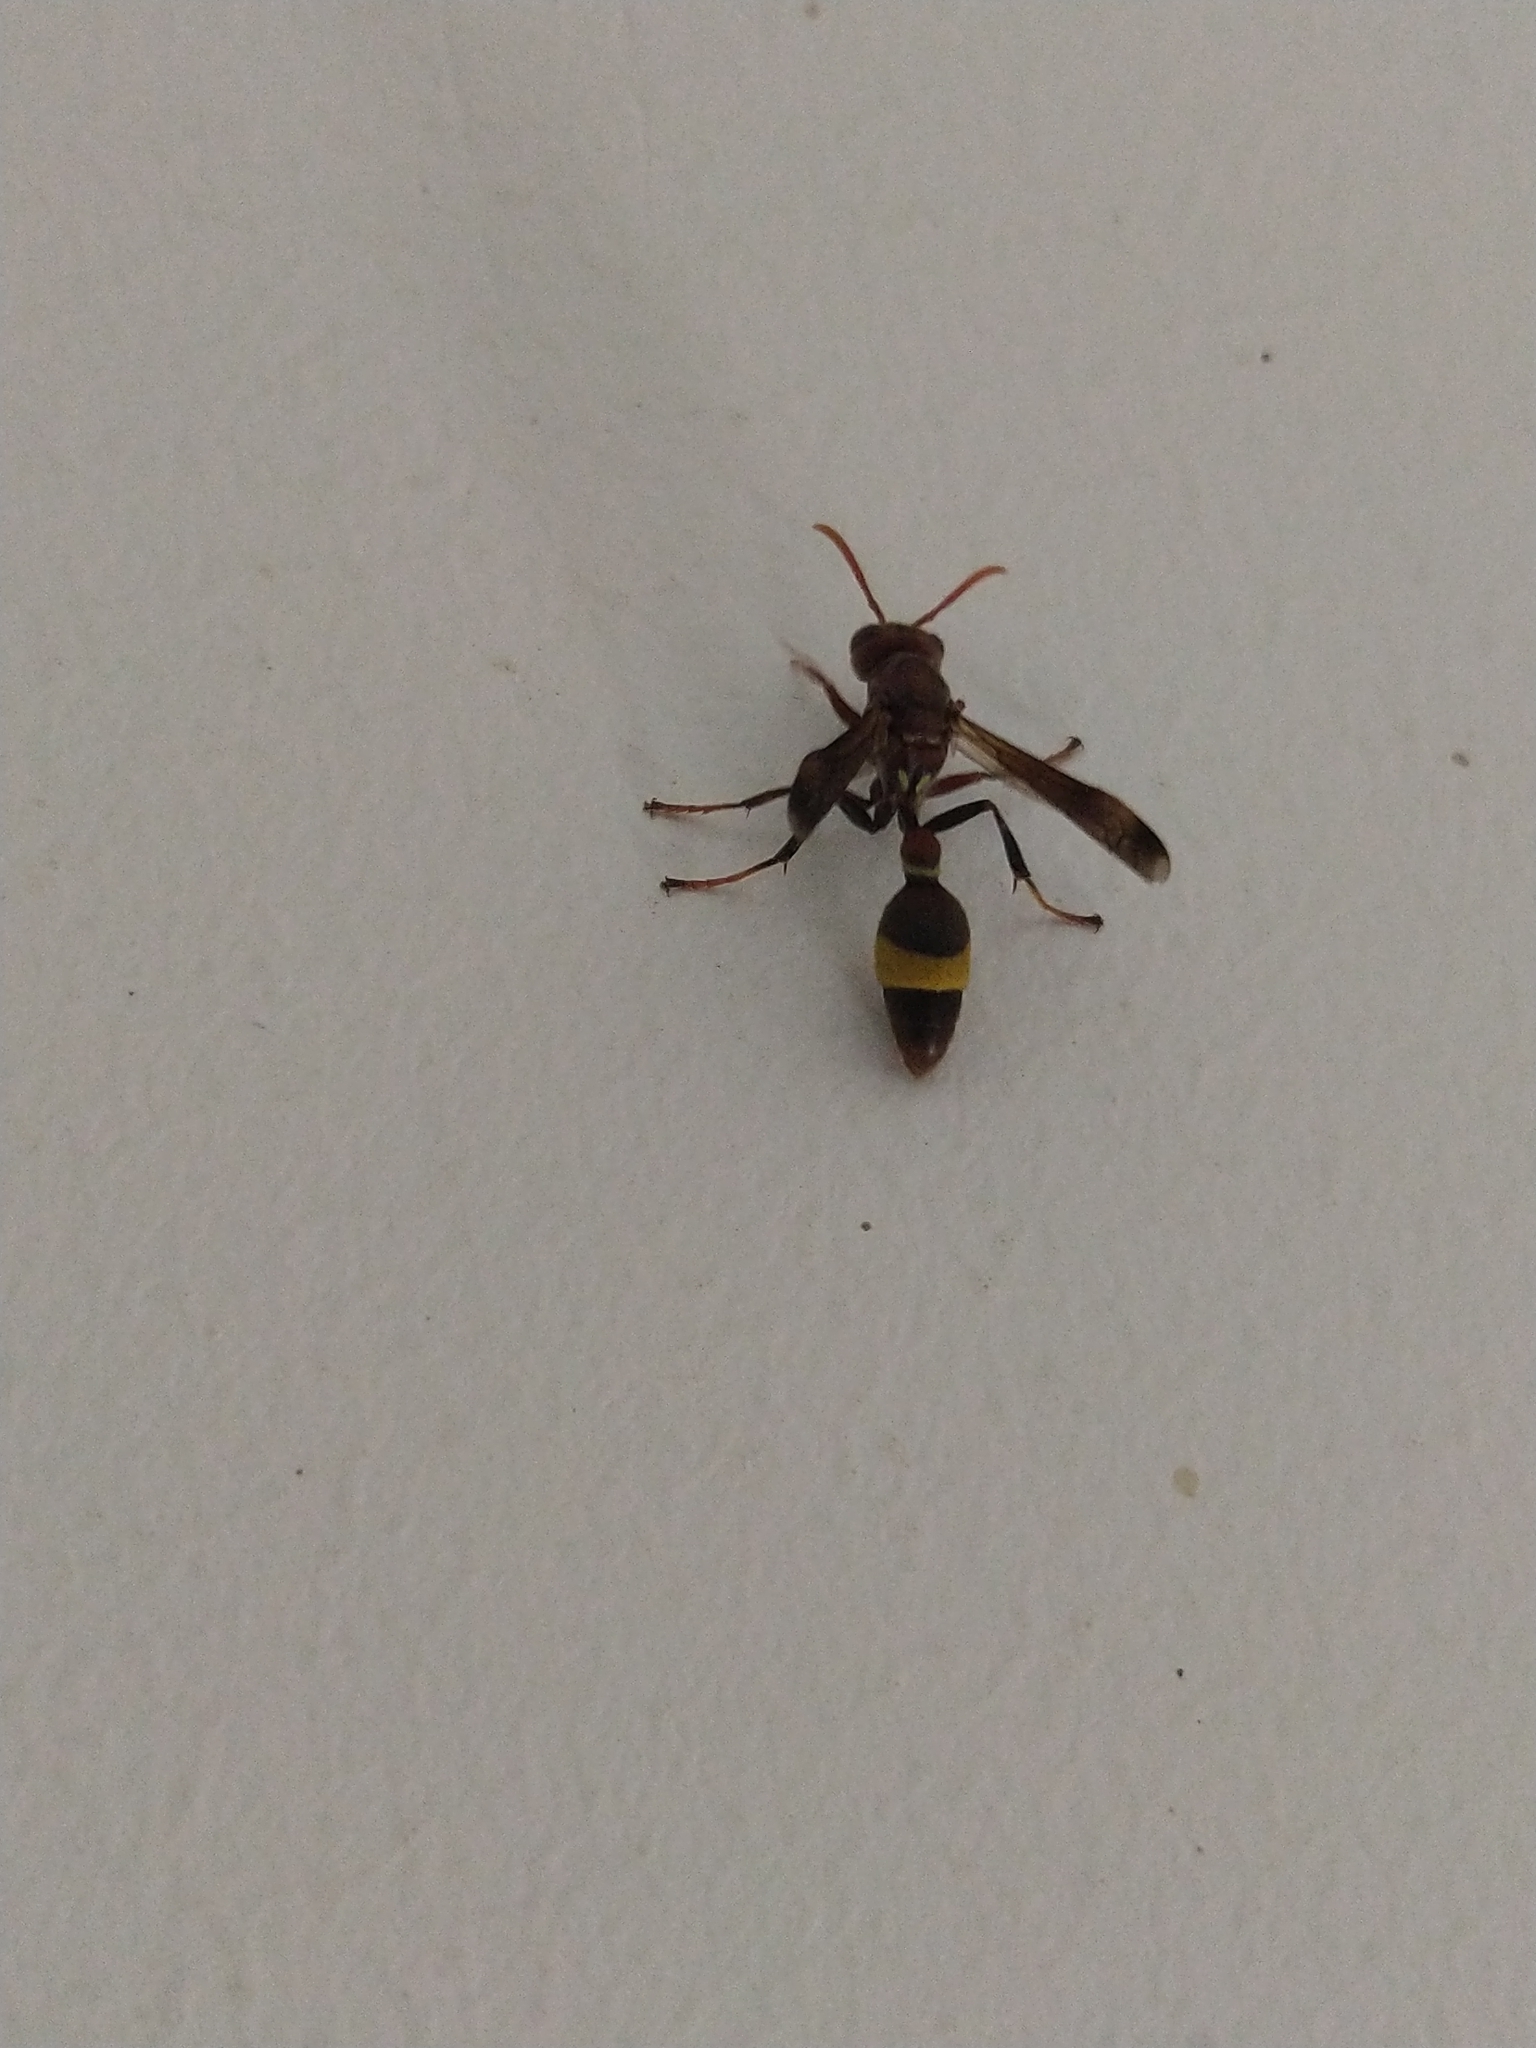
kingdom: Animalia
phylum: Arthropoda
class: Insecta
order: Hymenoptera
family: Vespidae
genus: Ropalidia
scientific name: Ropalidia
